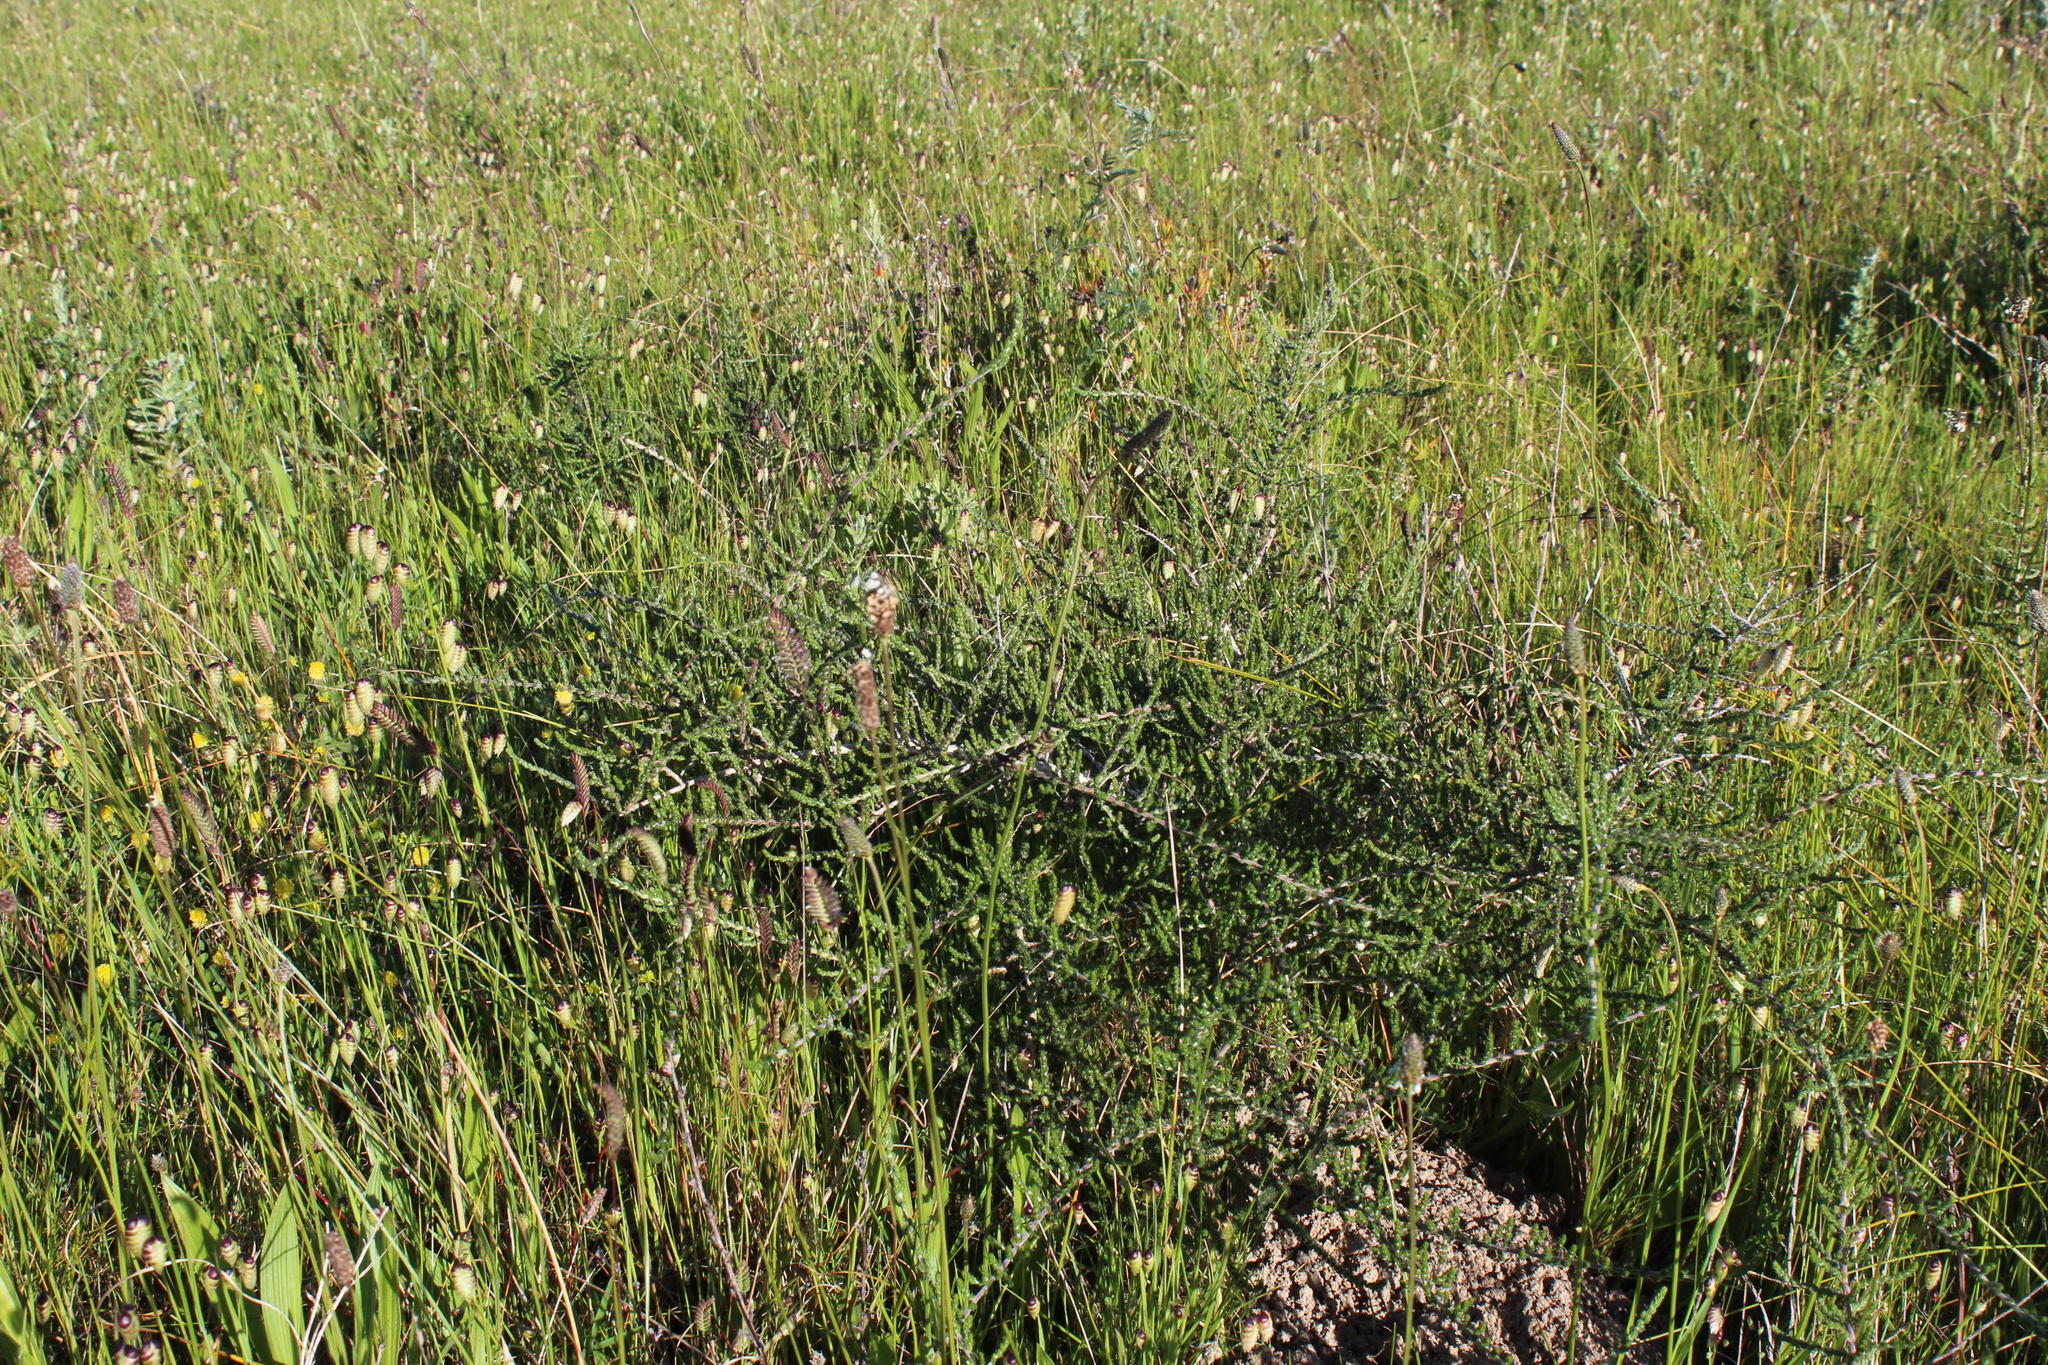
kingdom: Plantae
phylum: Tracheophyta
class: Magnoliopsida
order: Fabales
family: Fabaceae
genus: Aspalathus
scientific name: Aspalathus hispida
